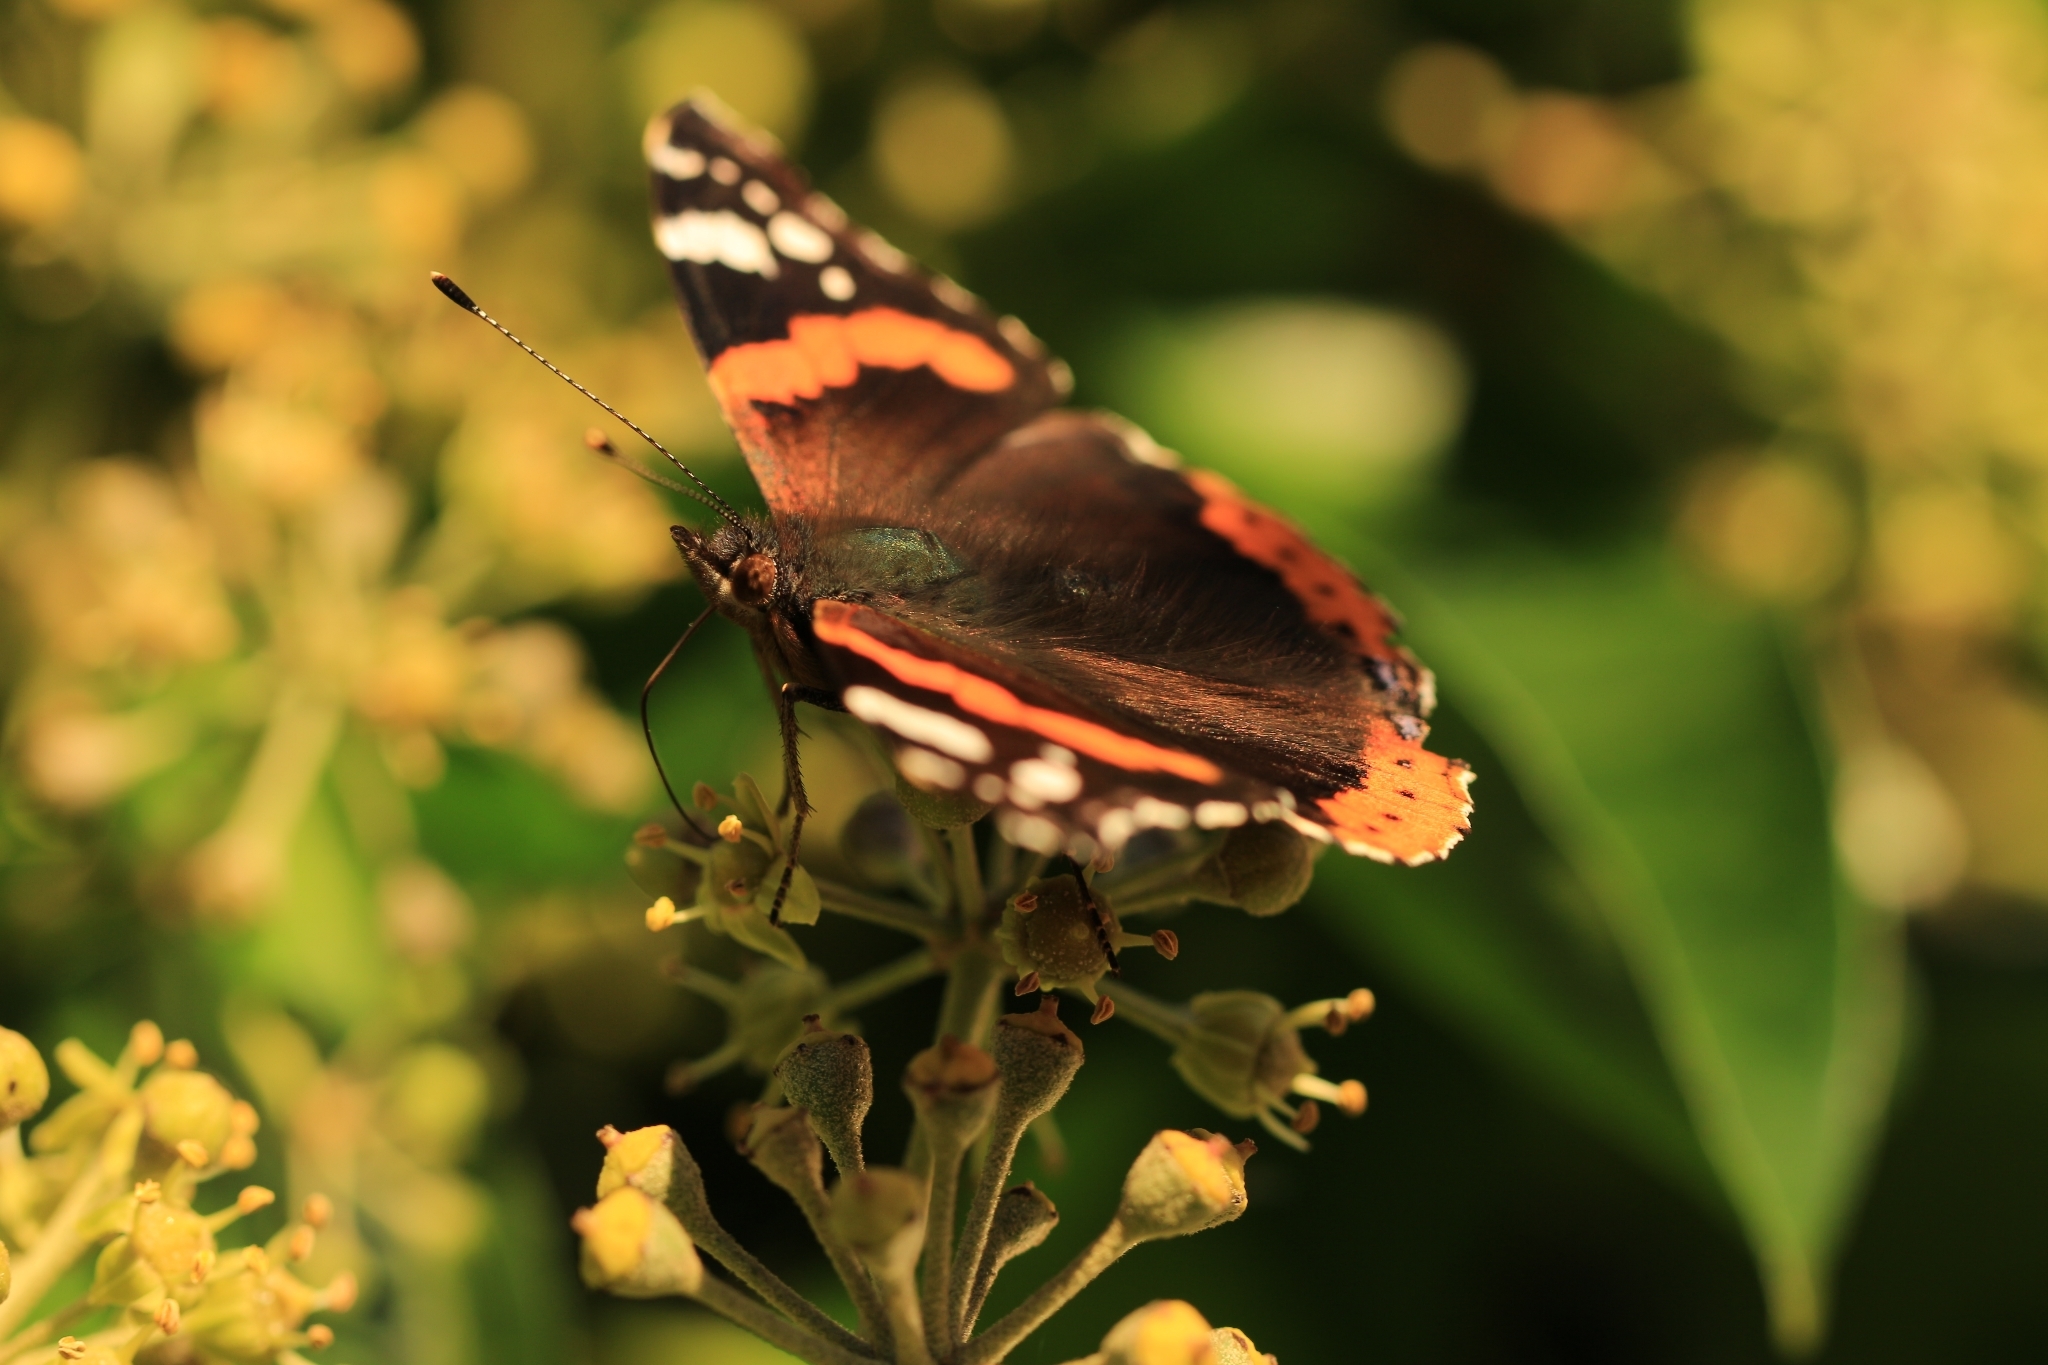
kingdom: Animalia
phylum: Arthropoda
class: Insecta
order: Lepidoptera
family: Nymphalidae
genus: Vanessa
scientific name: Vanessa atalanta
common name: Red admiral
